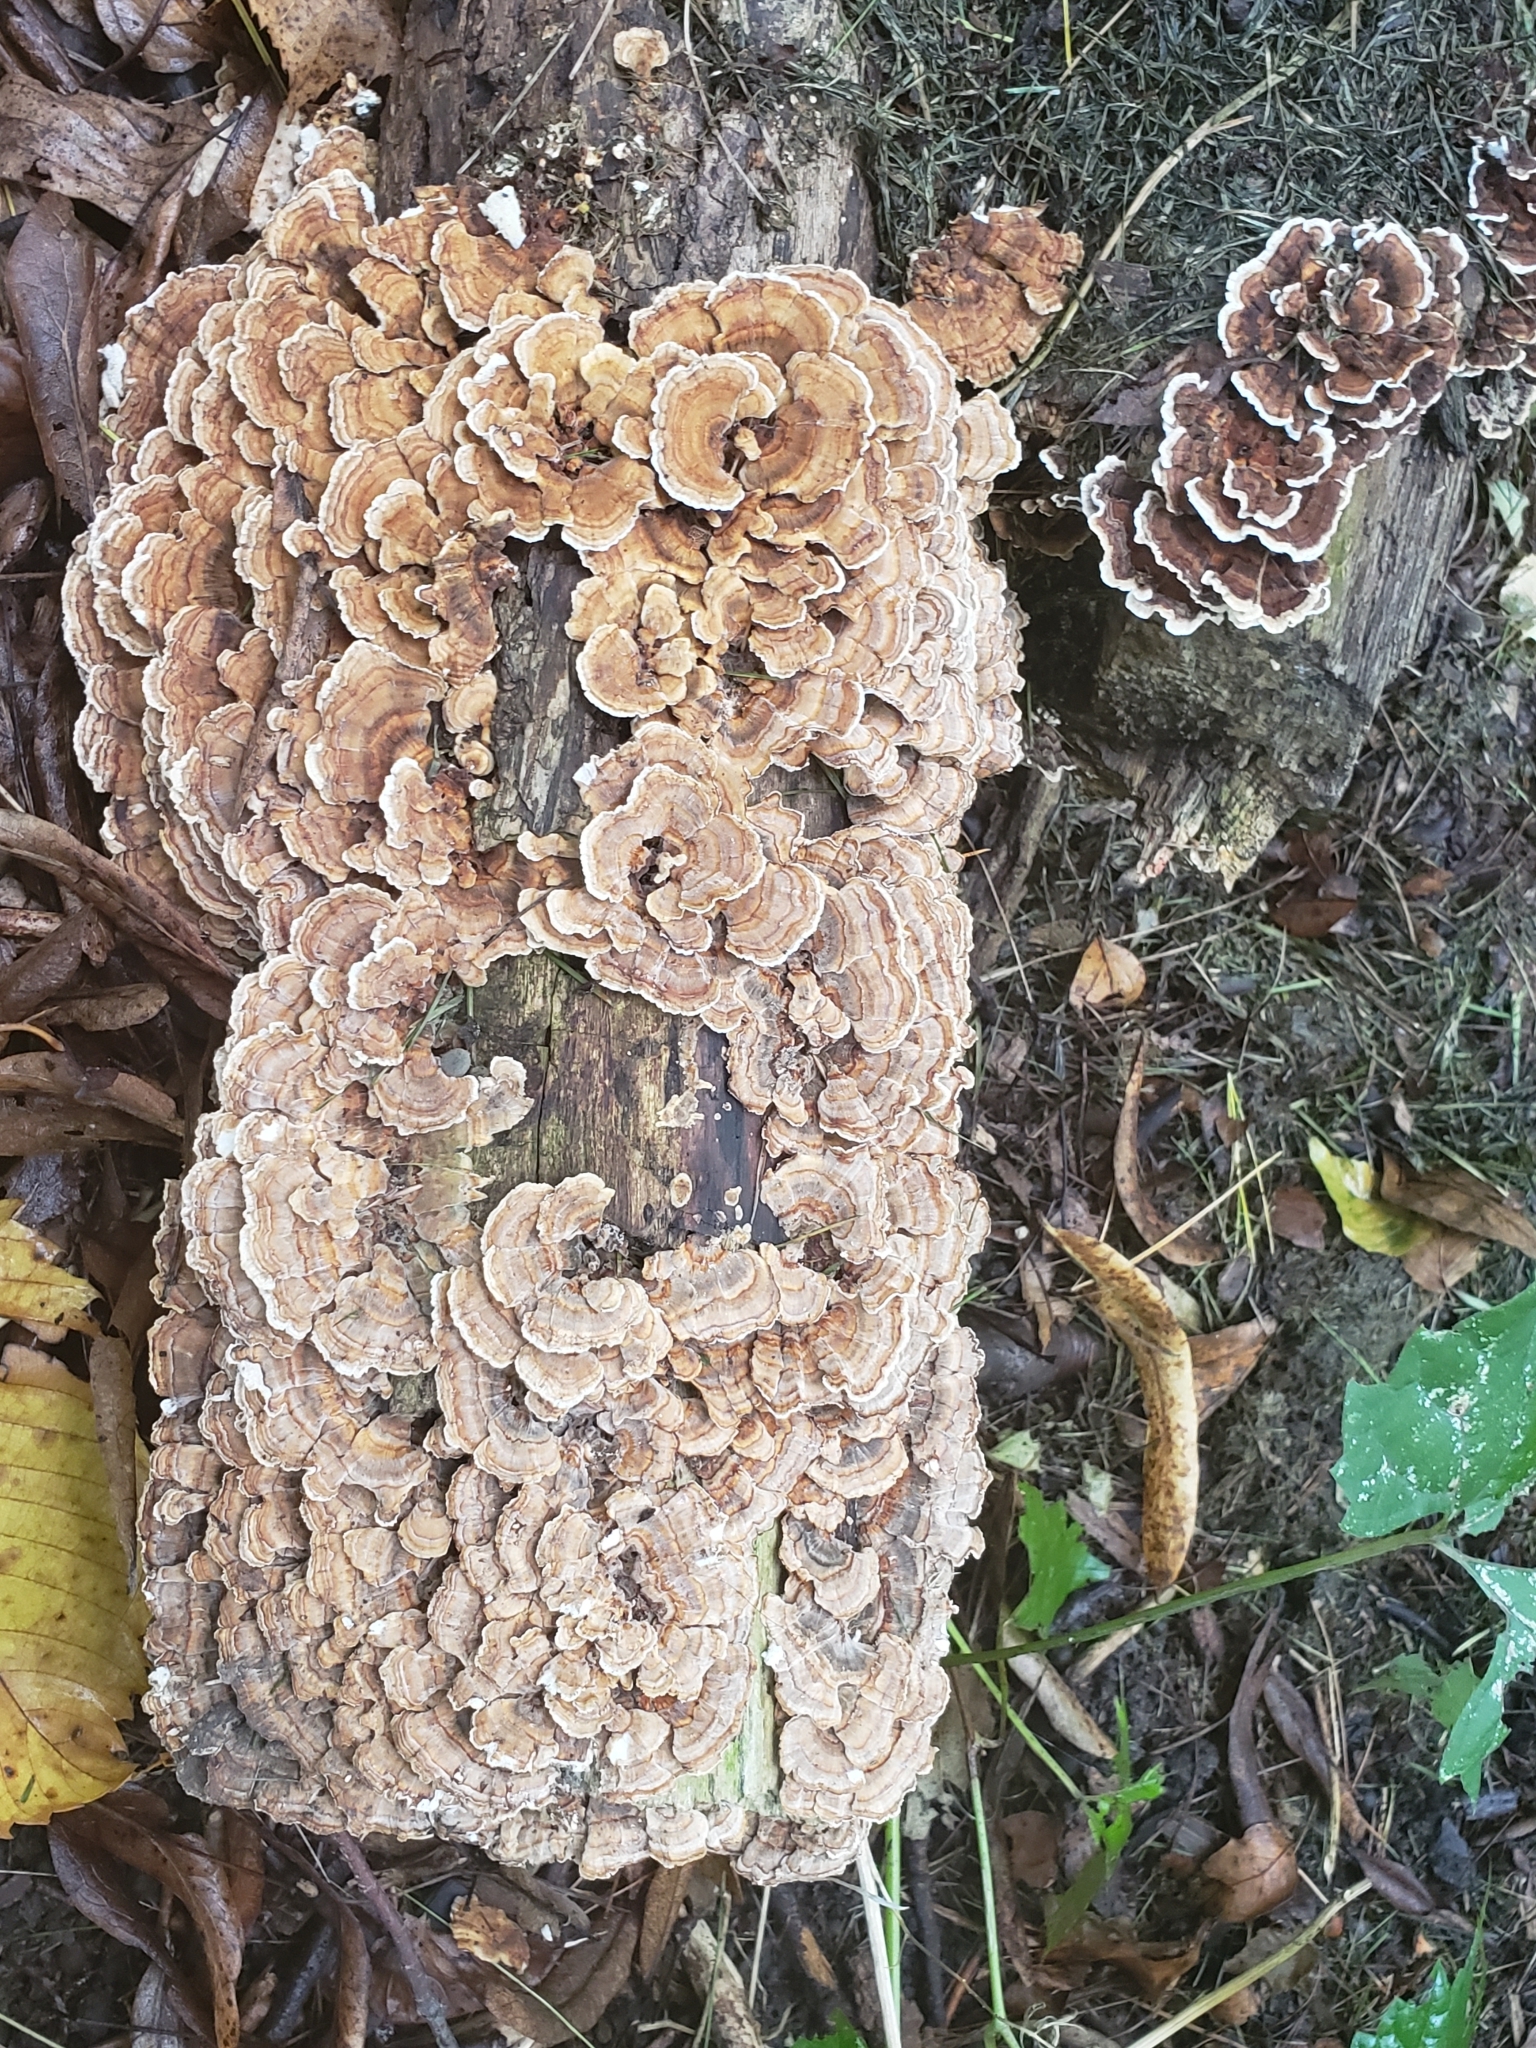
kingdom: Fungi
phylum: Basidiomycota
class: Agaricomycetes
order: Polyporales
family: Polyporaceae
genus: Trametes
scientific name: Trametes versicolor
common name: Turkeytail
